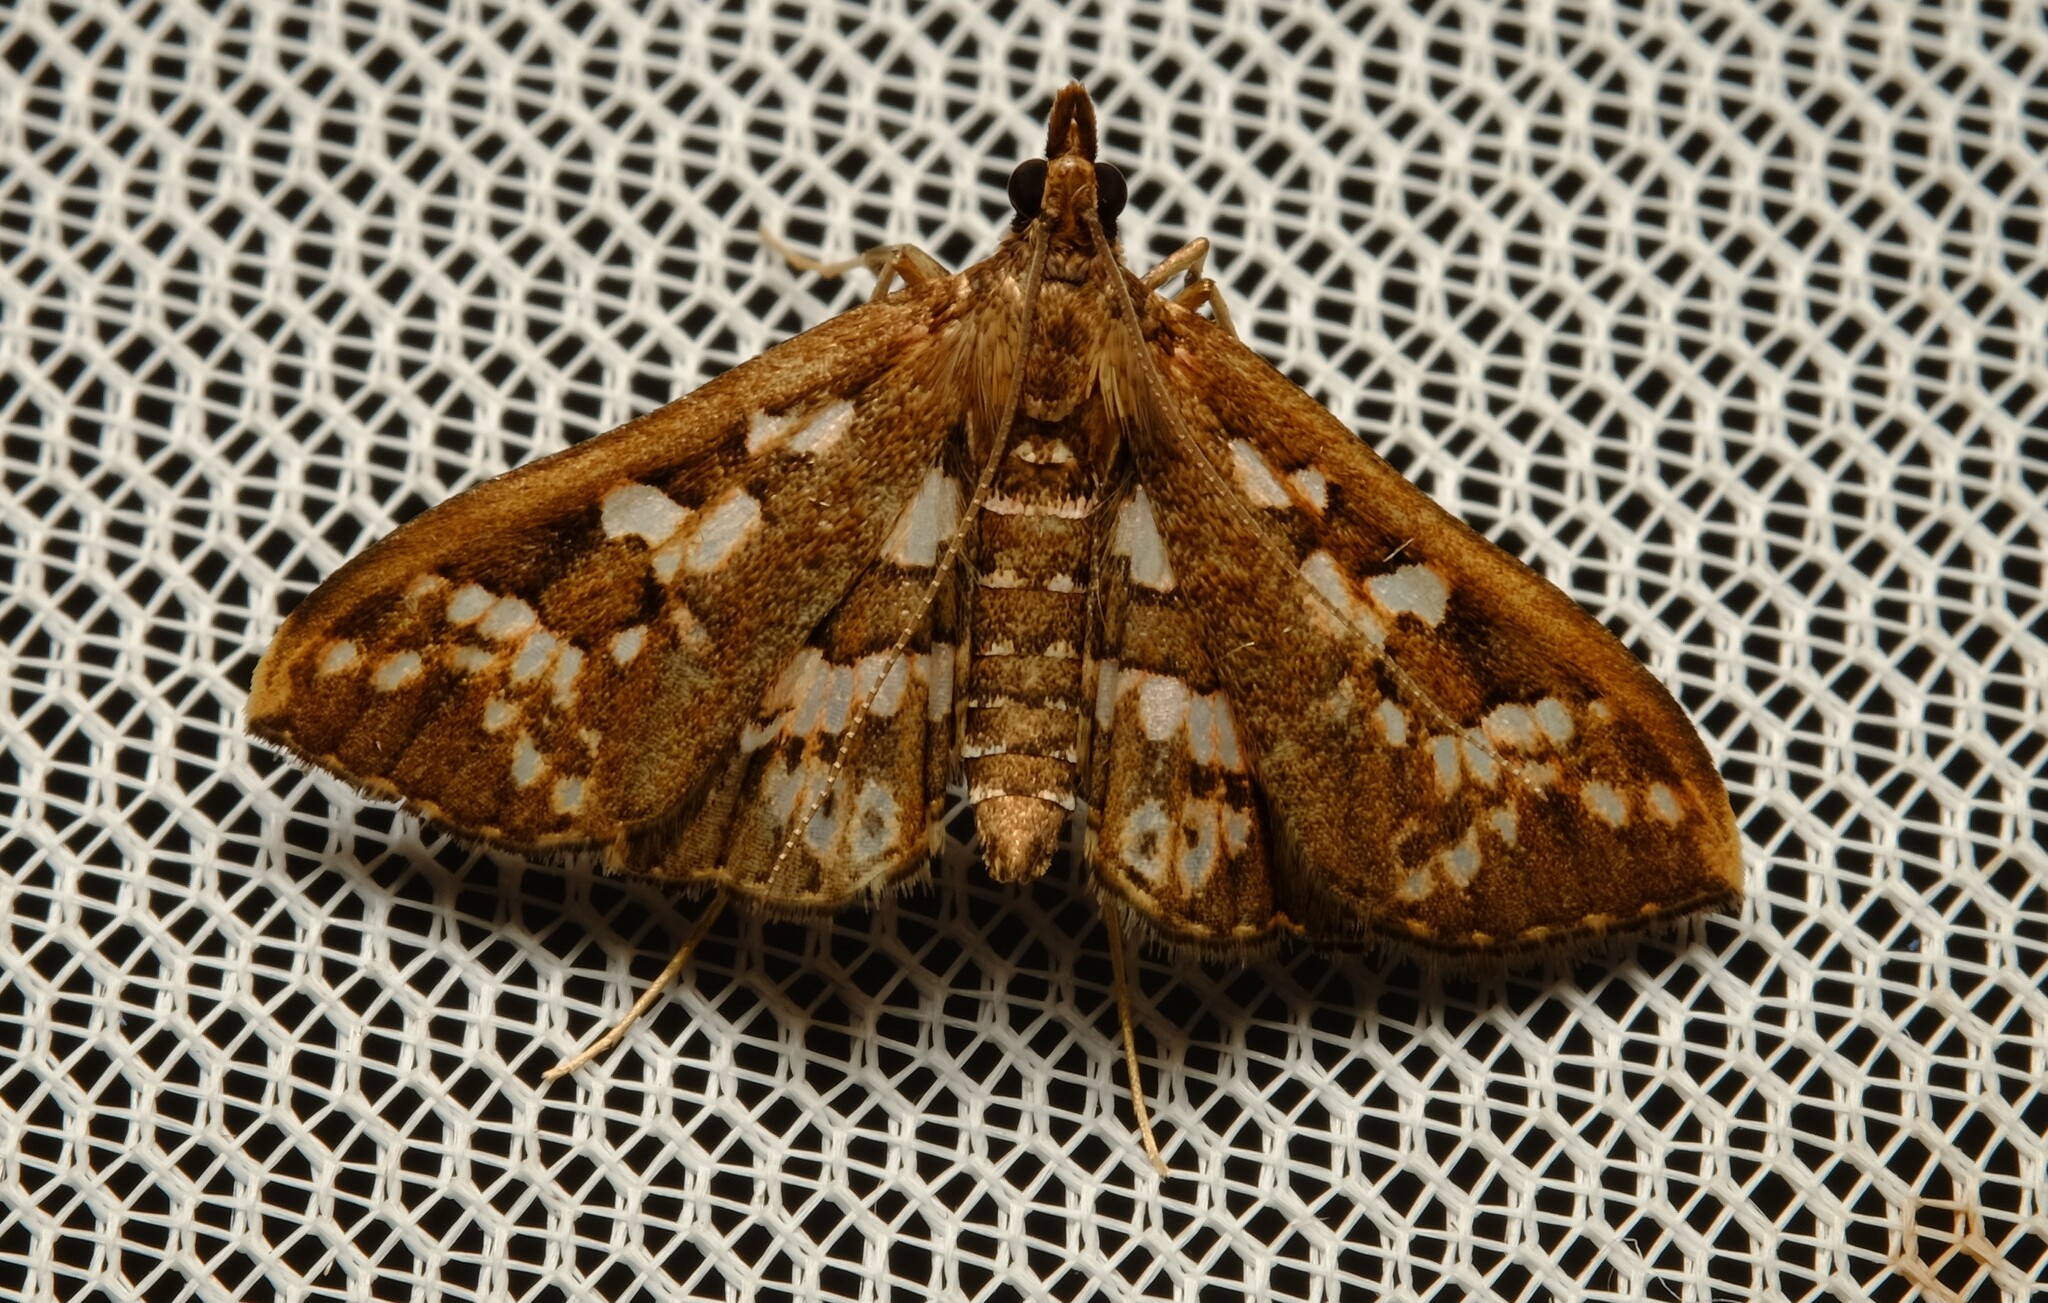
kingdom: Animalia
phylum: Arthropoda
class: Insecta
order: Lepidoptera
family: Crambidae
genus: Ischnurges
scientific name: Ischnurges illustralis
